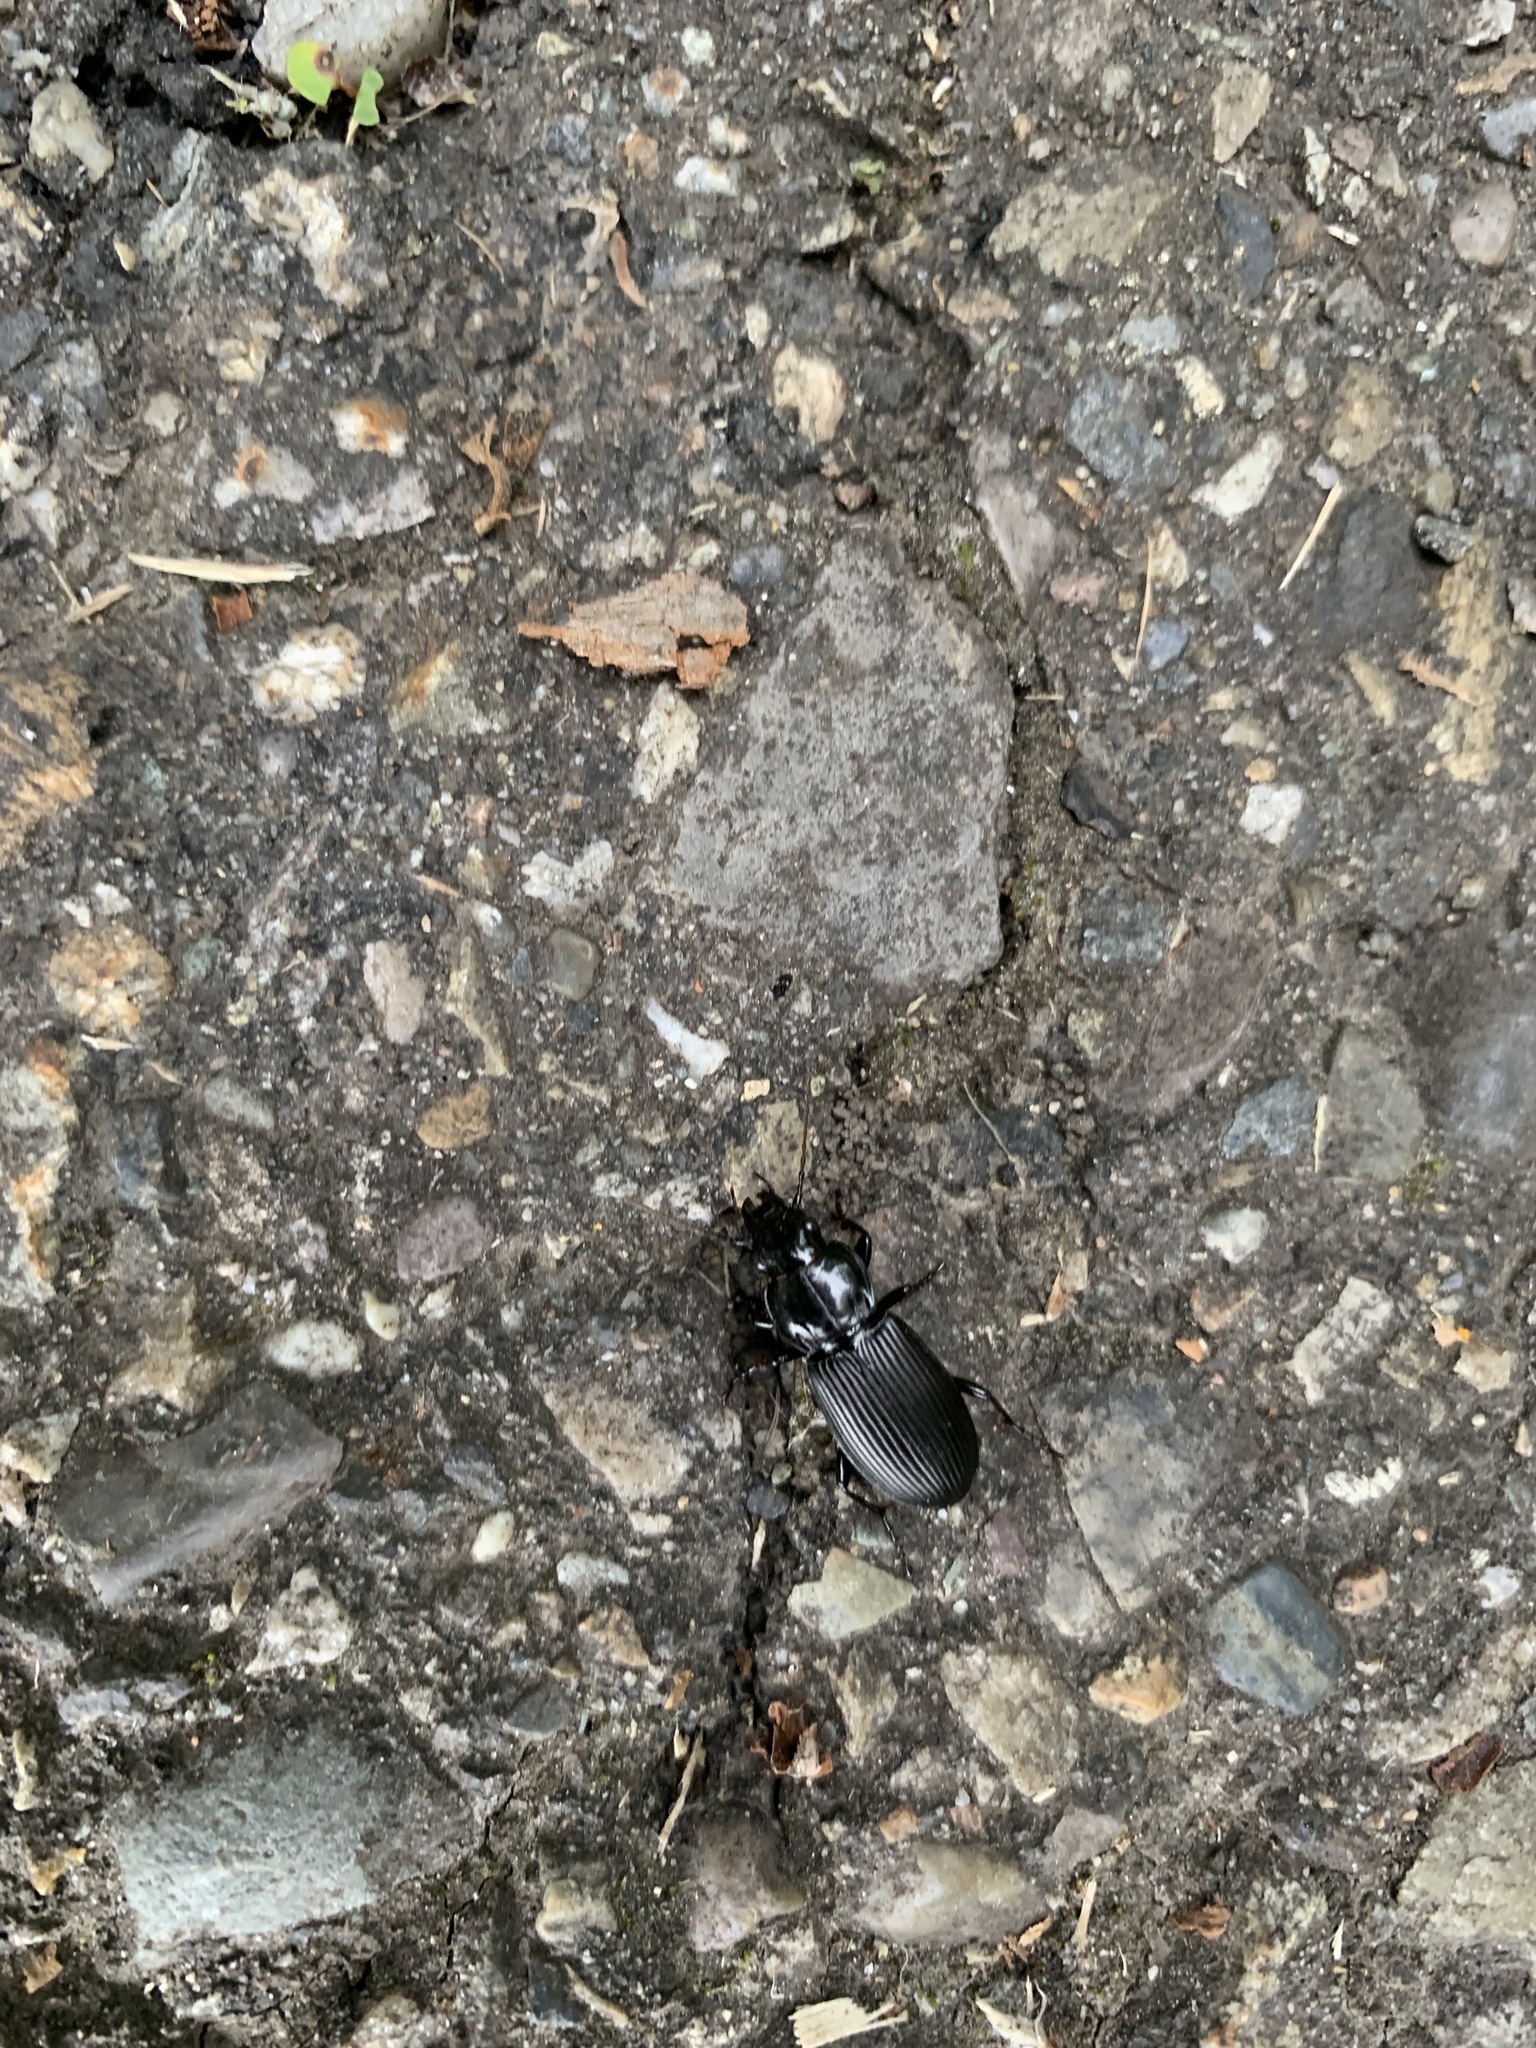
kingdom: Animalia
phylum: Arthropoda
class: Insecta
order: Coleoptera
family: Carabidae
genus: Pterostichus
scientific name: Pterostichus melanarius
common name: European dark harp ground beetle
